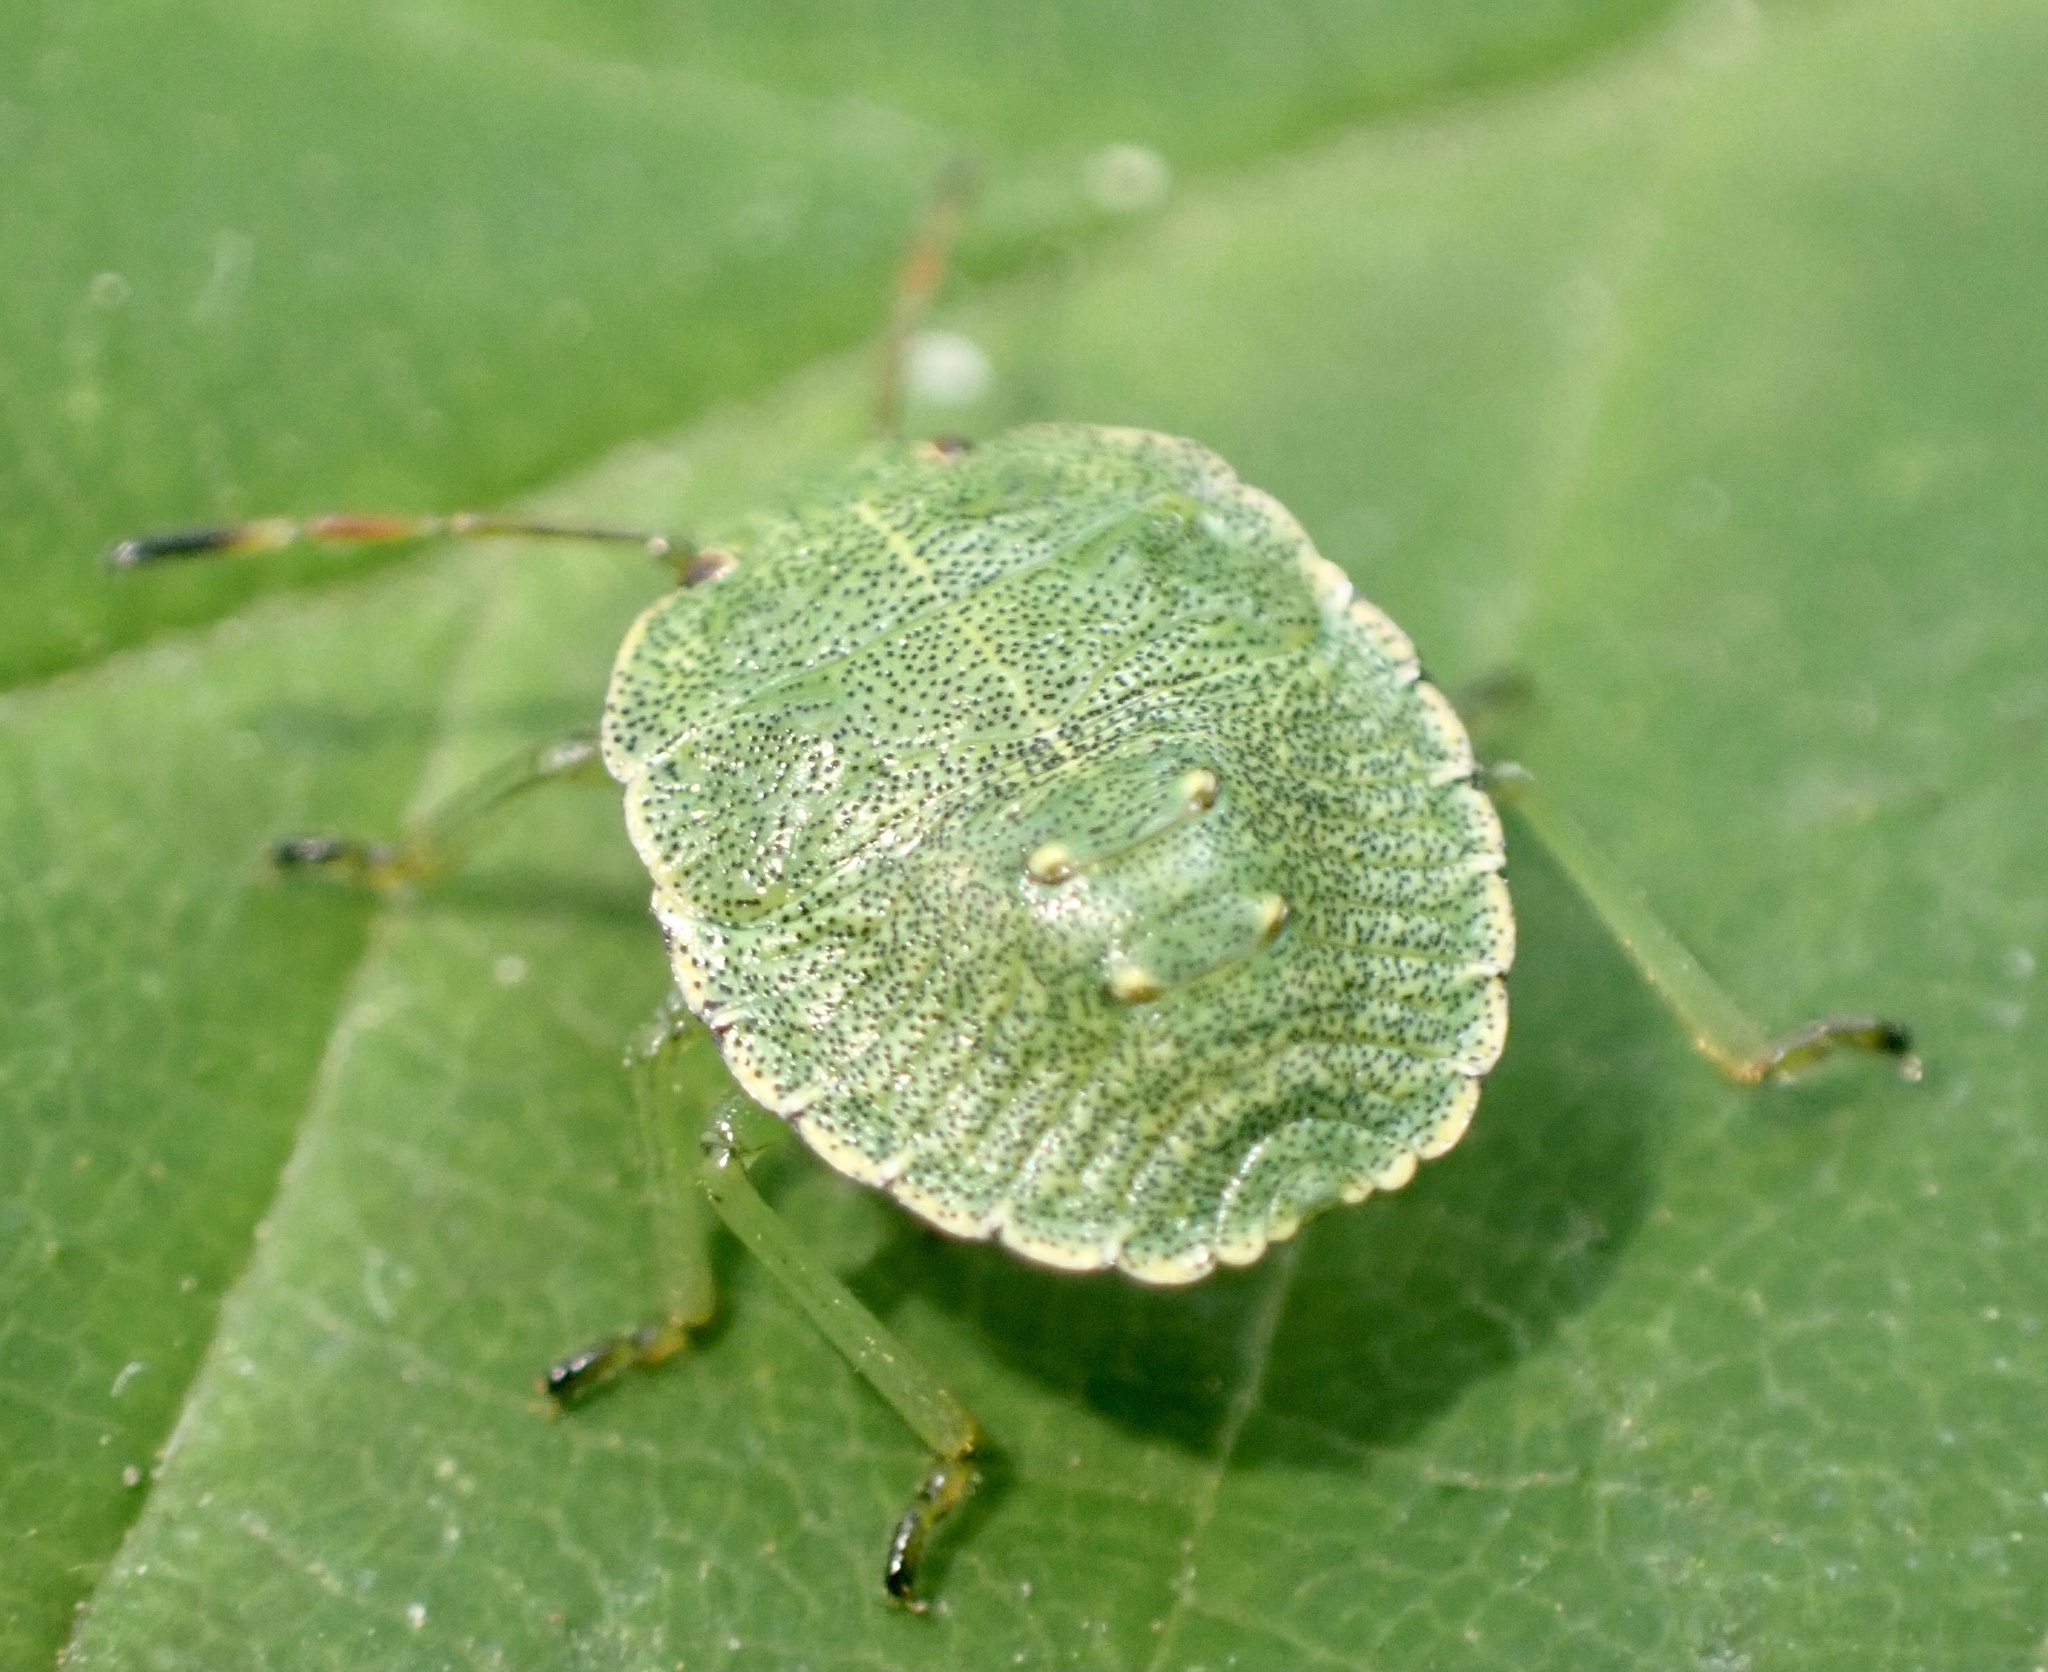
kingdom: Animalia
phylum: Arthropoda
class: Insecta
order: Hemiptera
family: Pentatomidae
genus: Palomena
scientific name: Palomena prasina
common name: Green shieldbug
